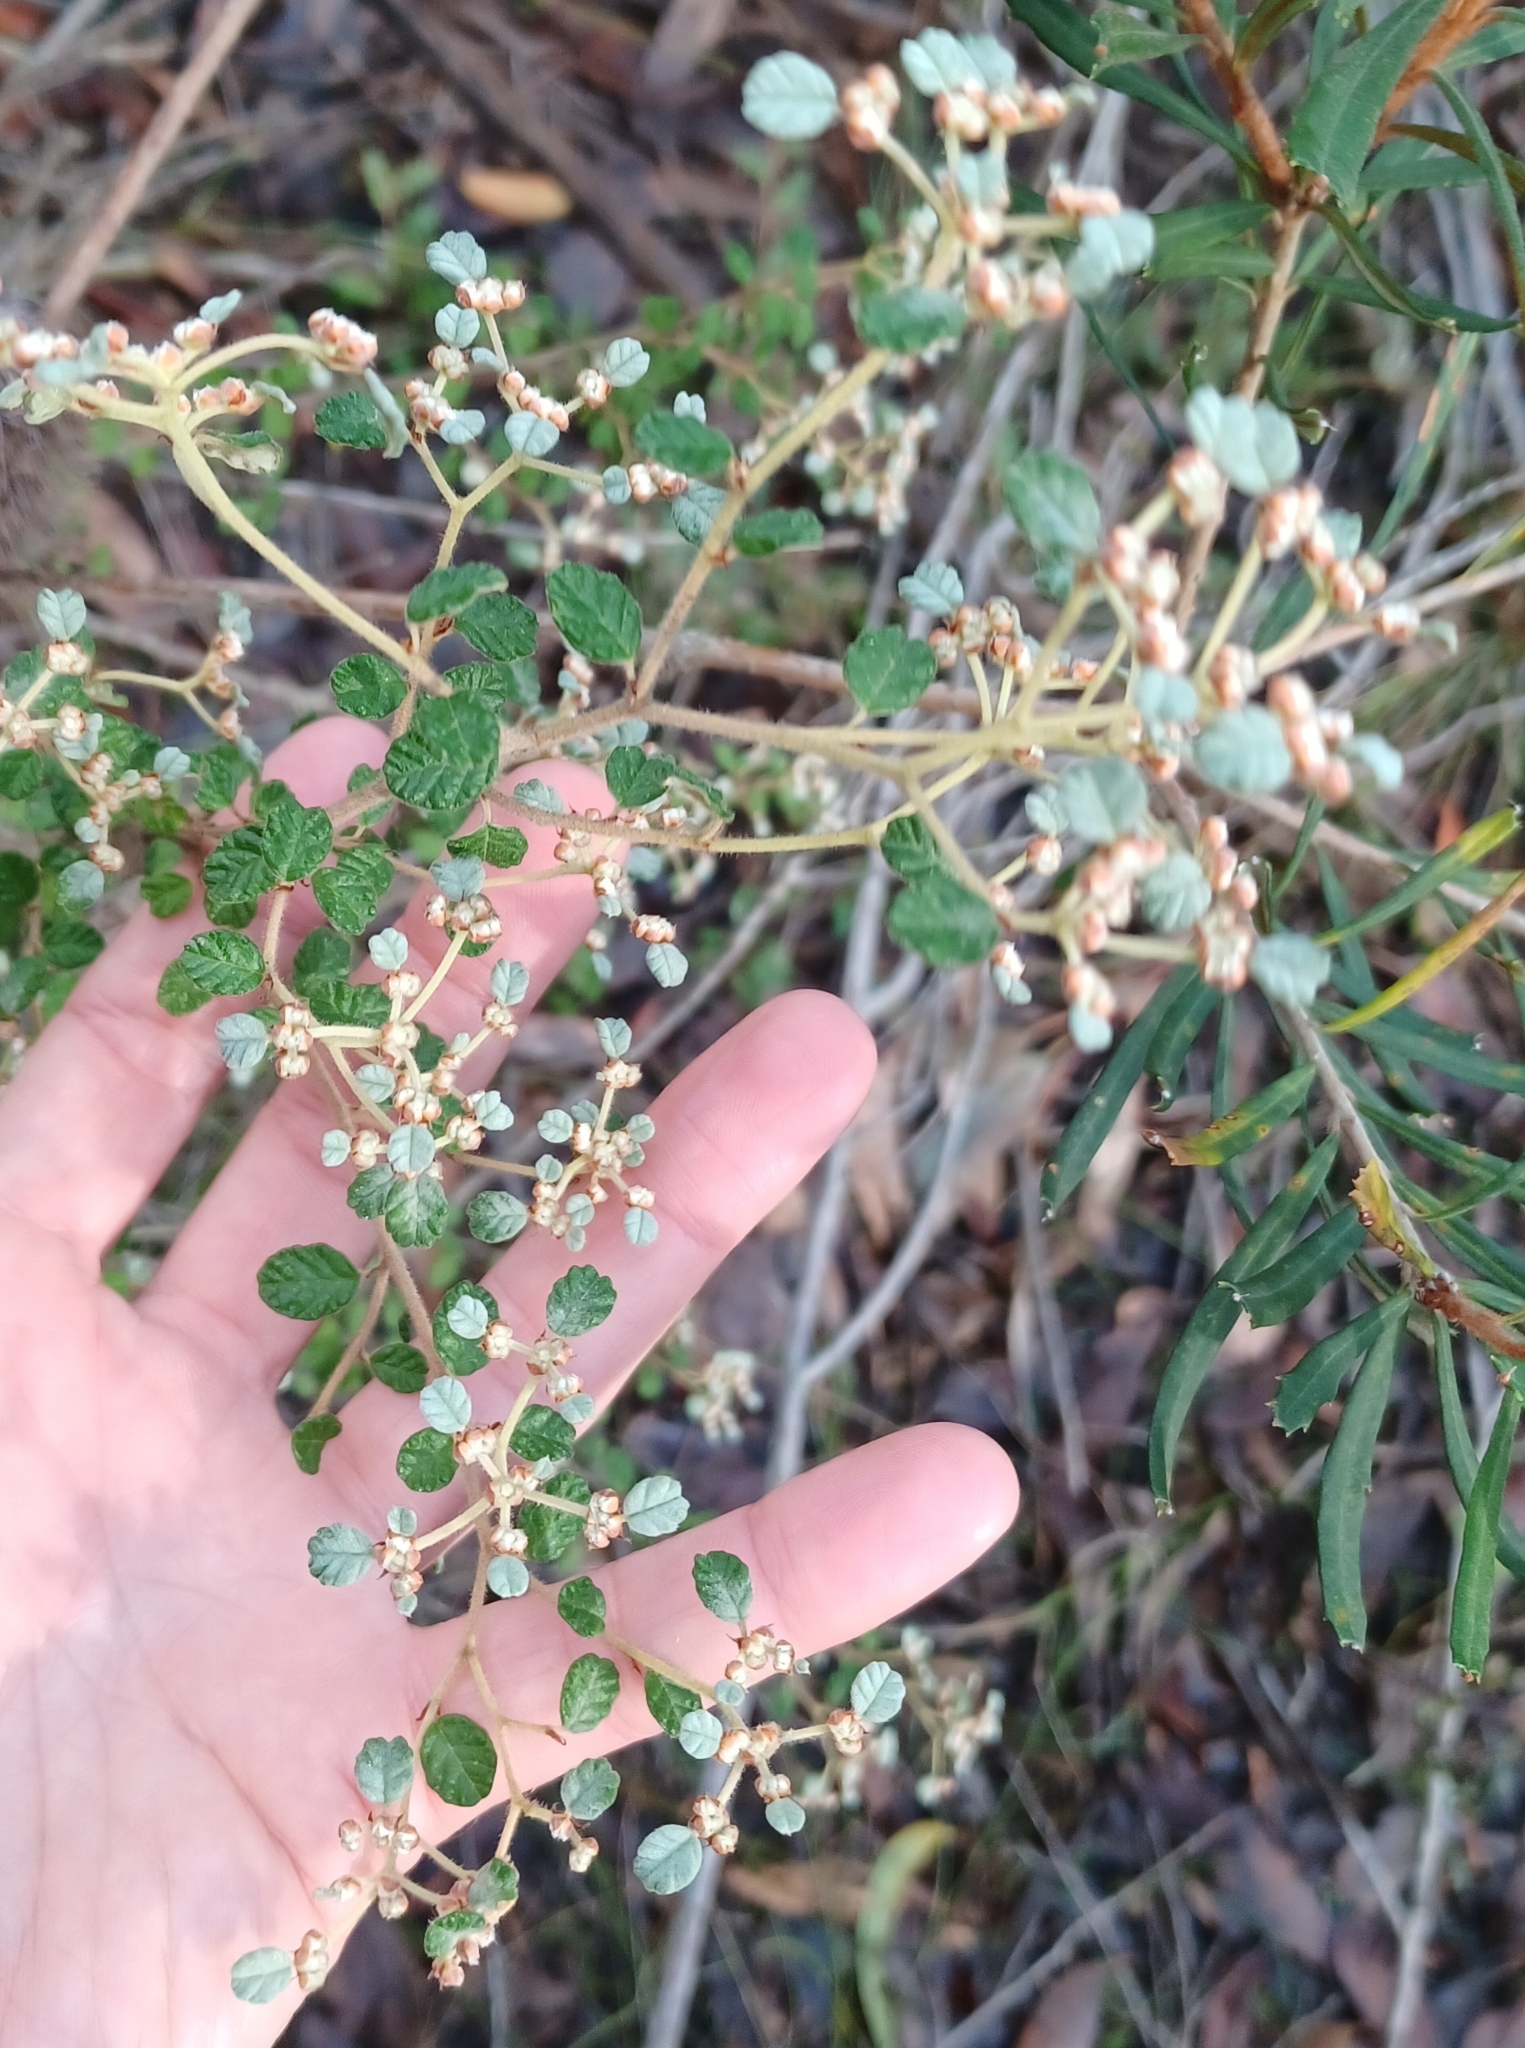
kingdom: Plantae
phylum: Tracheophyta
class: Magnoliopsida
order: Rosales
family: Rhamnaceae
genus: Spyridium
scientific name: Spyridium parvifolium
